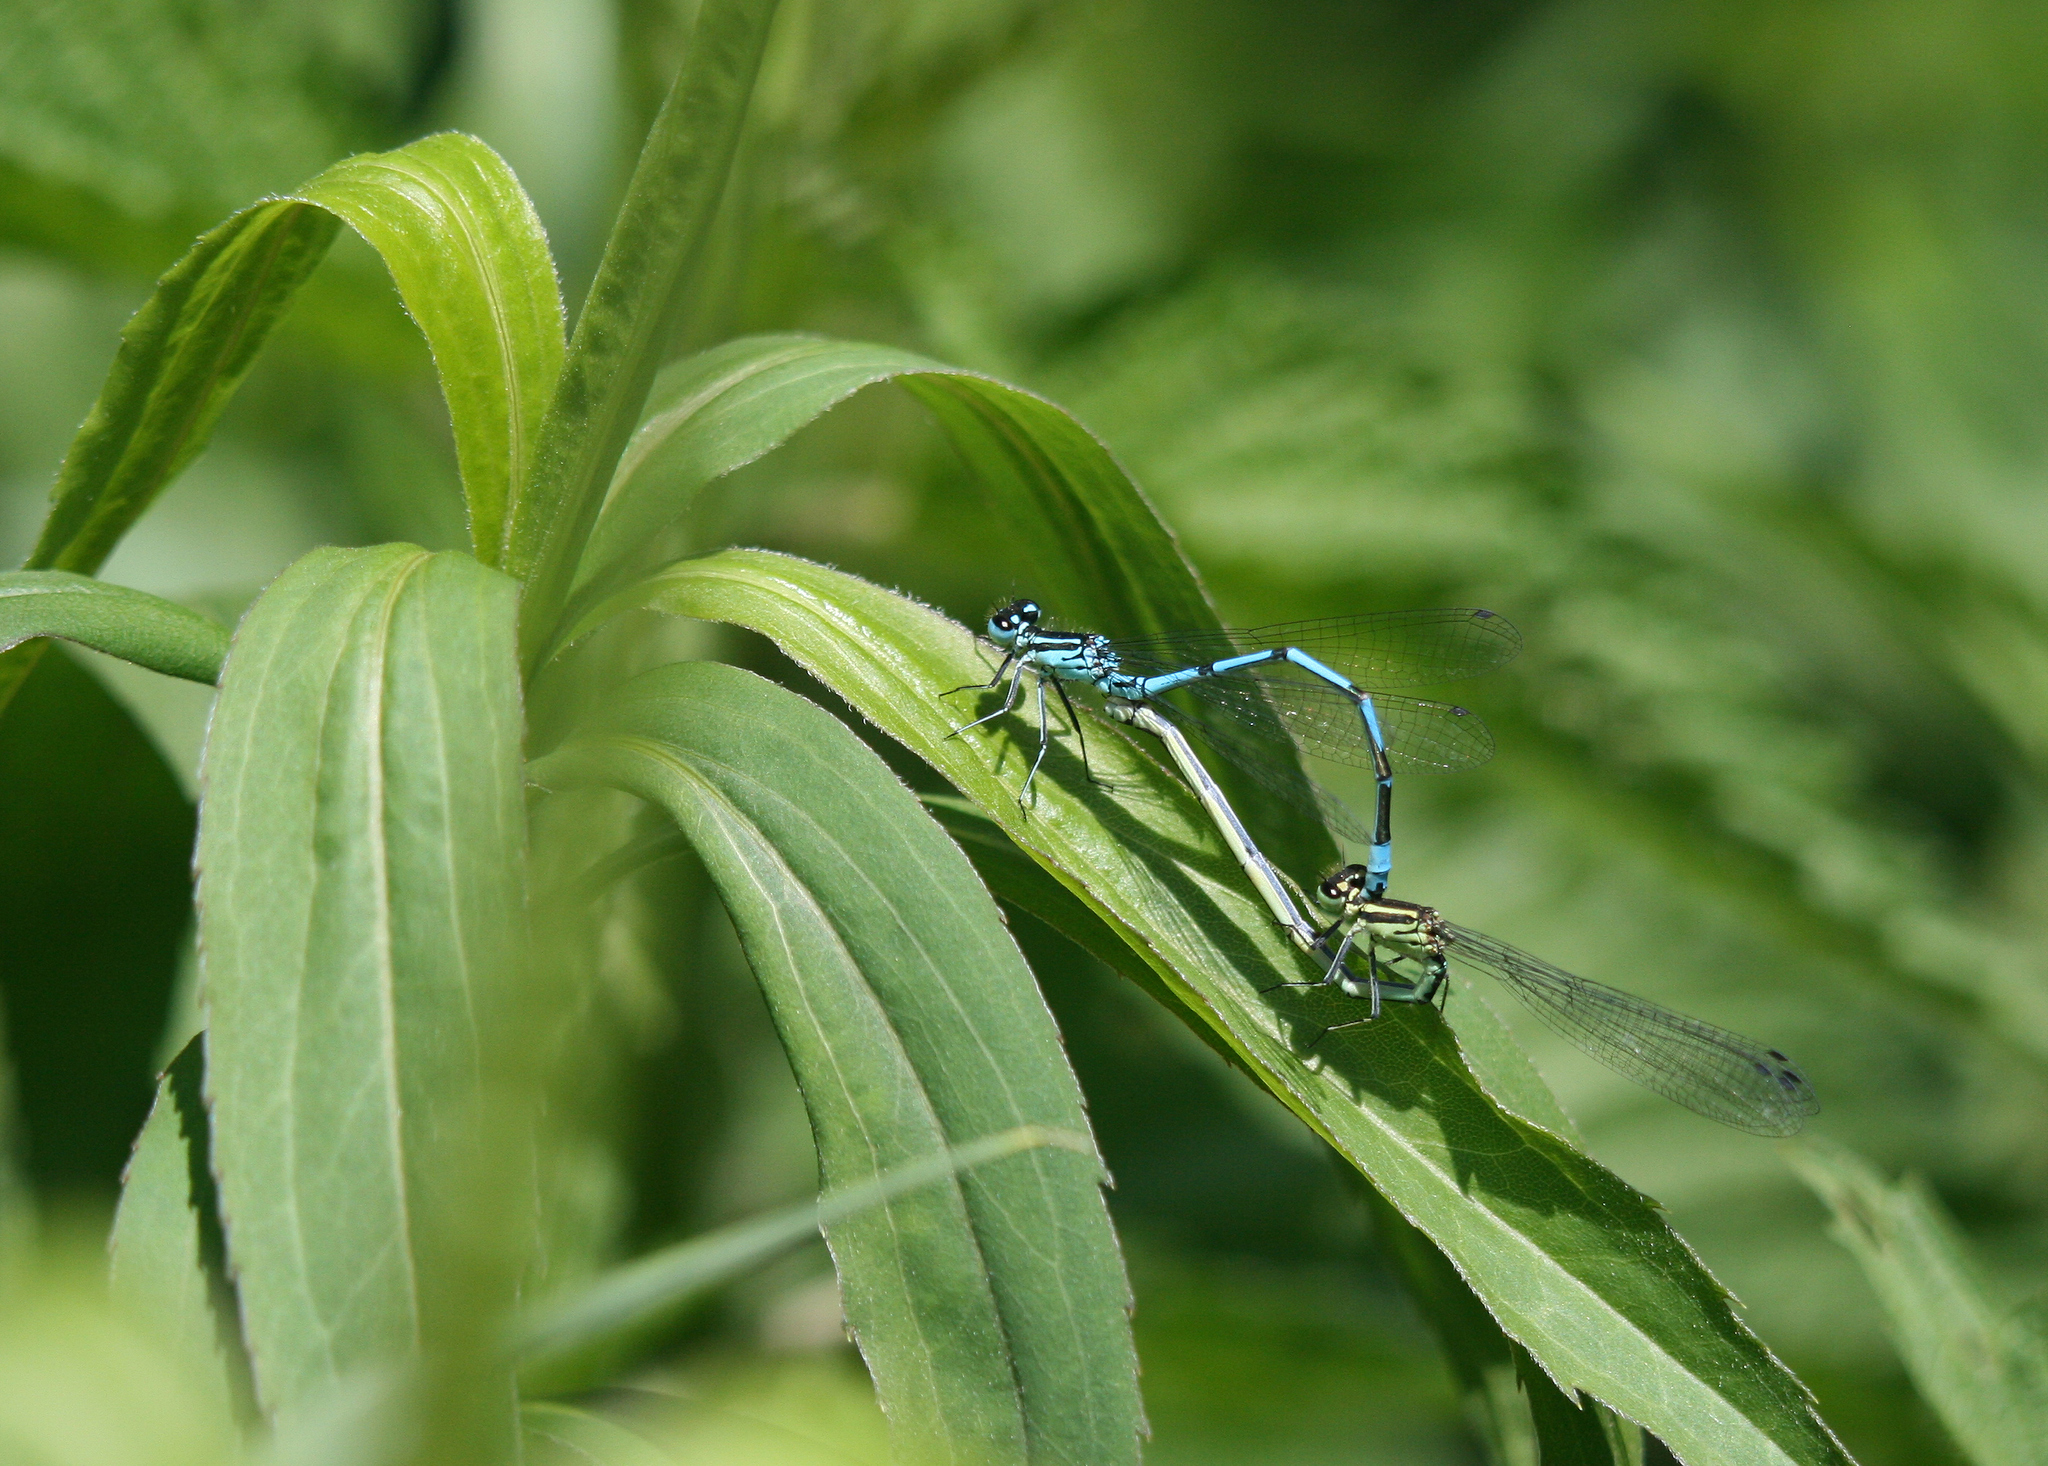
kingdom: Animalia
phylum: Arthropoda
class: Insecta
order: Odonata
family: Coenagrionidae
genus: Coenagrion
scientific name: Coenagrion puella
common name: Azure damselfly
